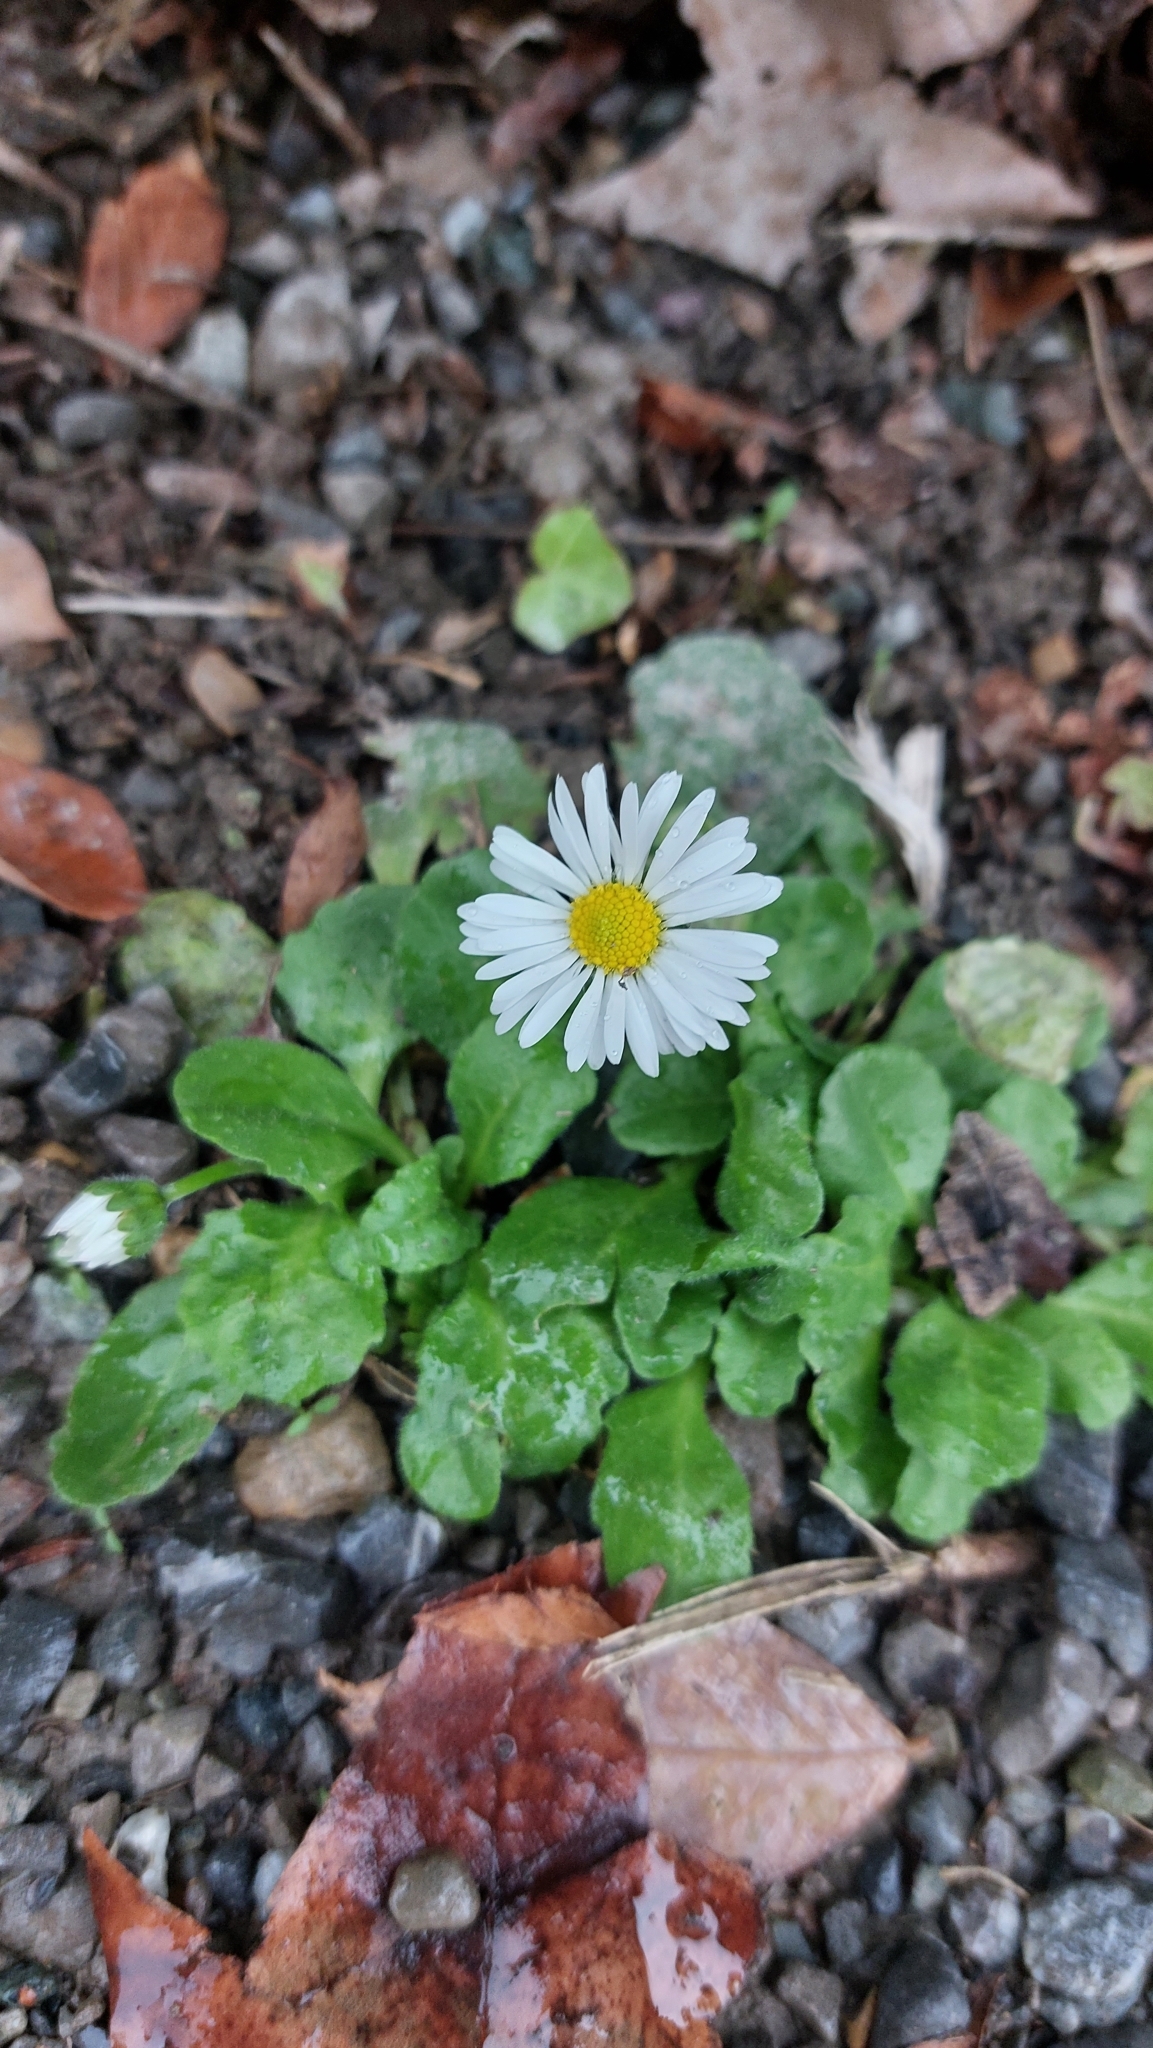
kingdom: Plantae
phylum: Tracheophyta
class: Magnoliopsida
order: Asterales
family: Asteraceae
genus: Bellis
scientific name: Bellis perennis
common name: Lawndaisy
